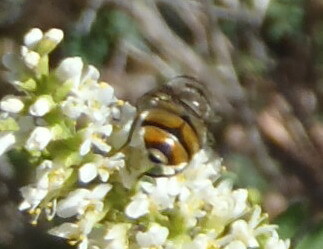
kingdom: Animalia
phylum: Arthropoda
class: Insecta
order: Diptera
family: Syrphidae
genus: Copestylum
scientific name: Copestylum avidum
